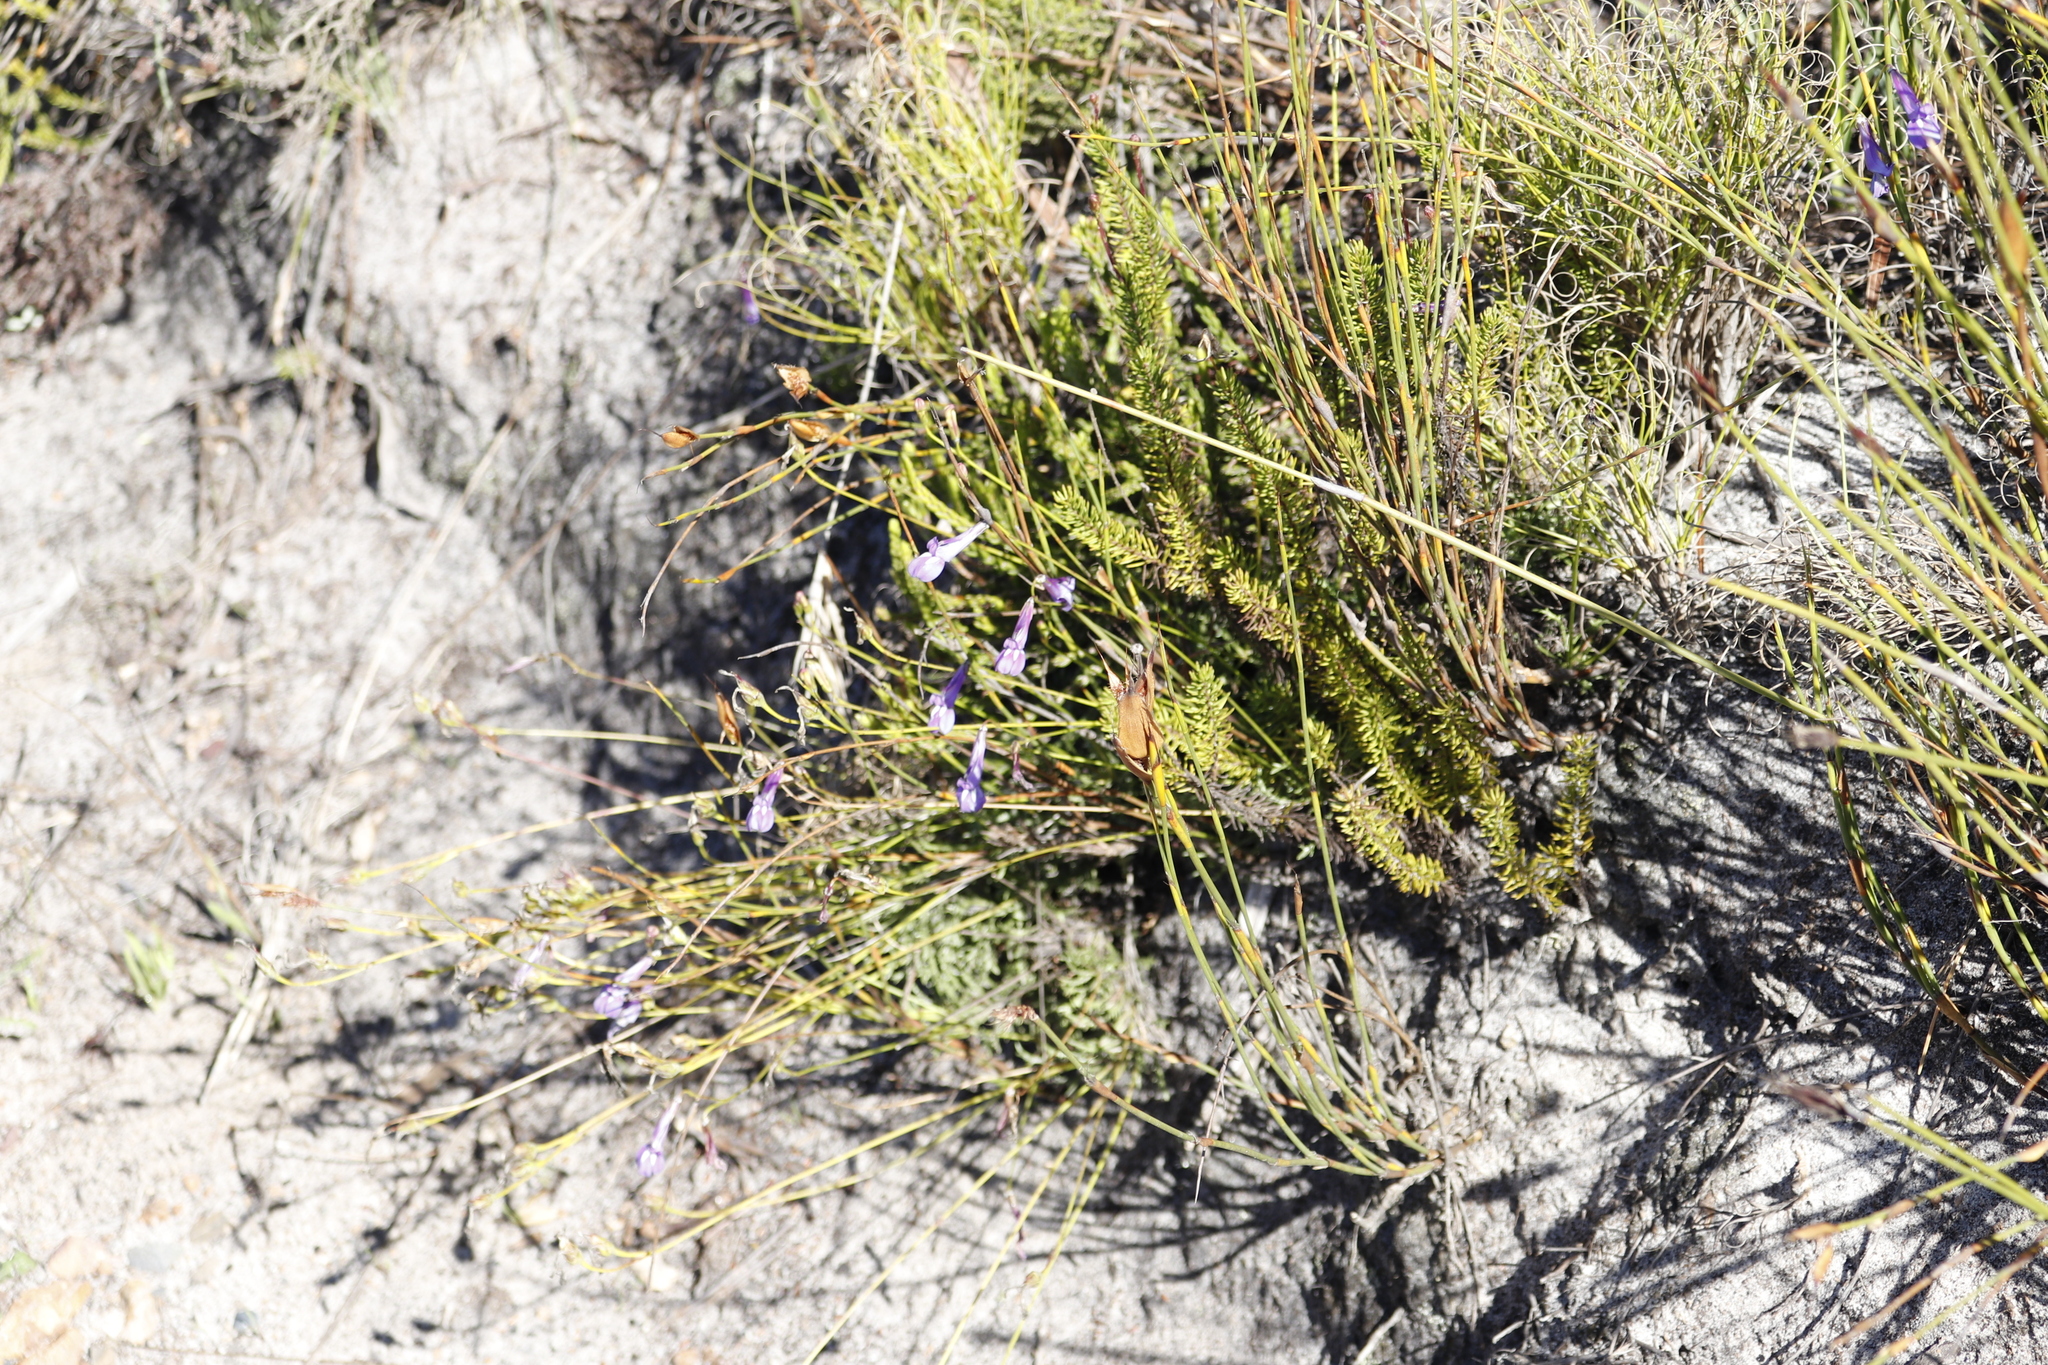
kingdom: Plantae
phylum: Tracheophyta
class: Magnoliopsida
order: Asterales
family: Campanulaceae
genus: Lobelia
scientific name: Lobelia coronopifolia
